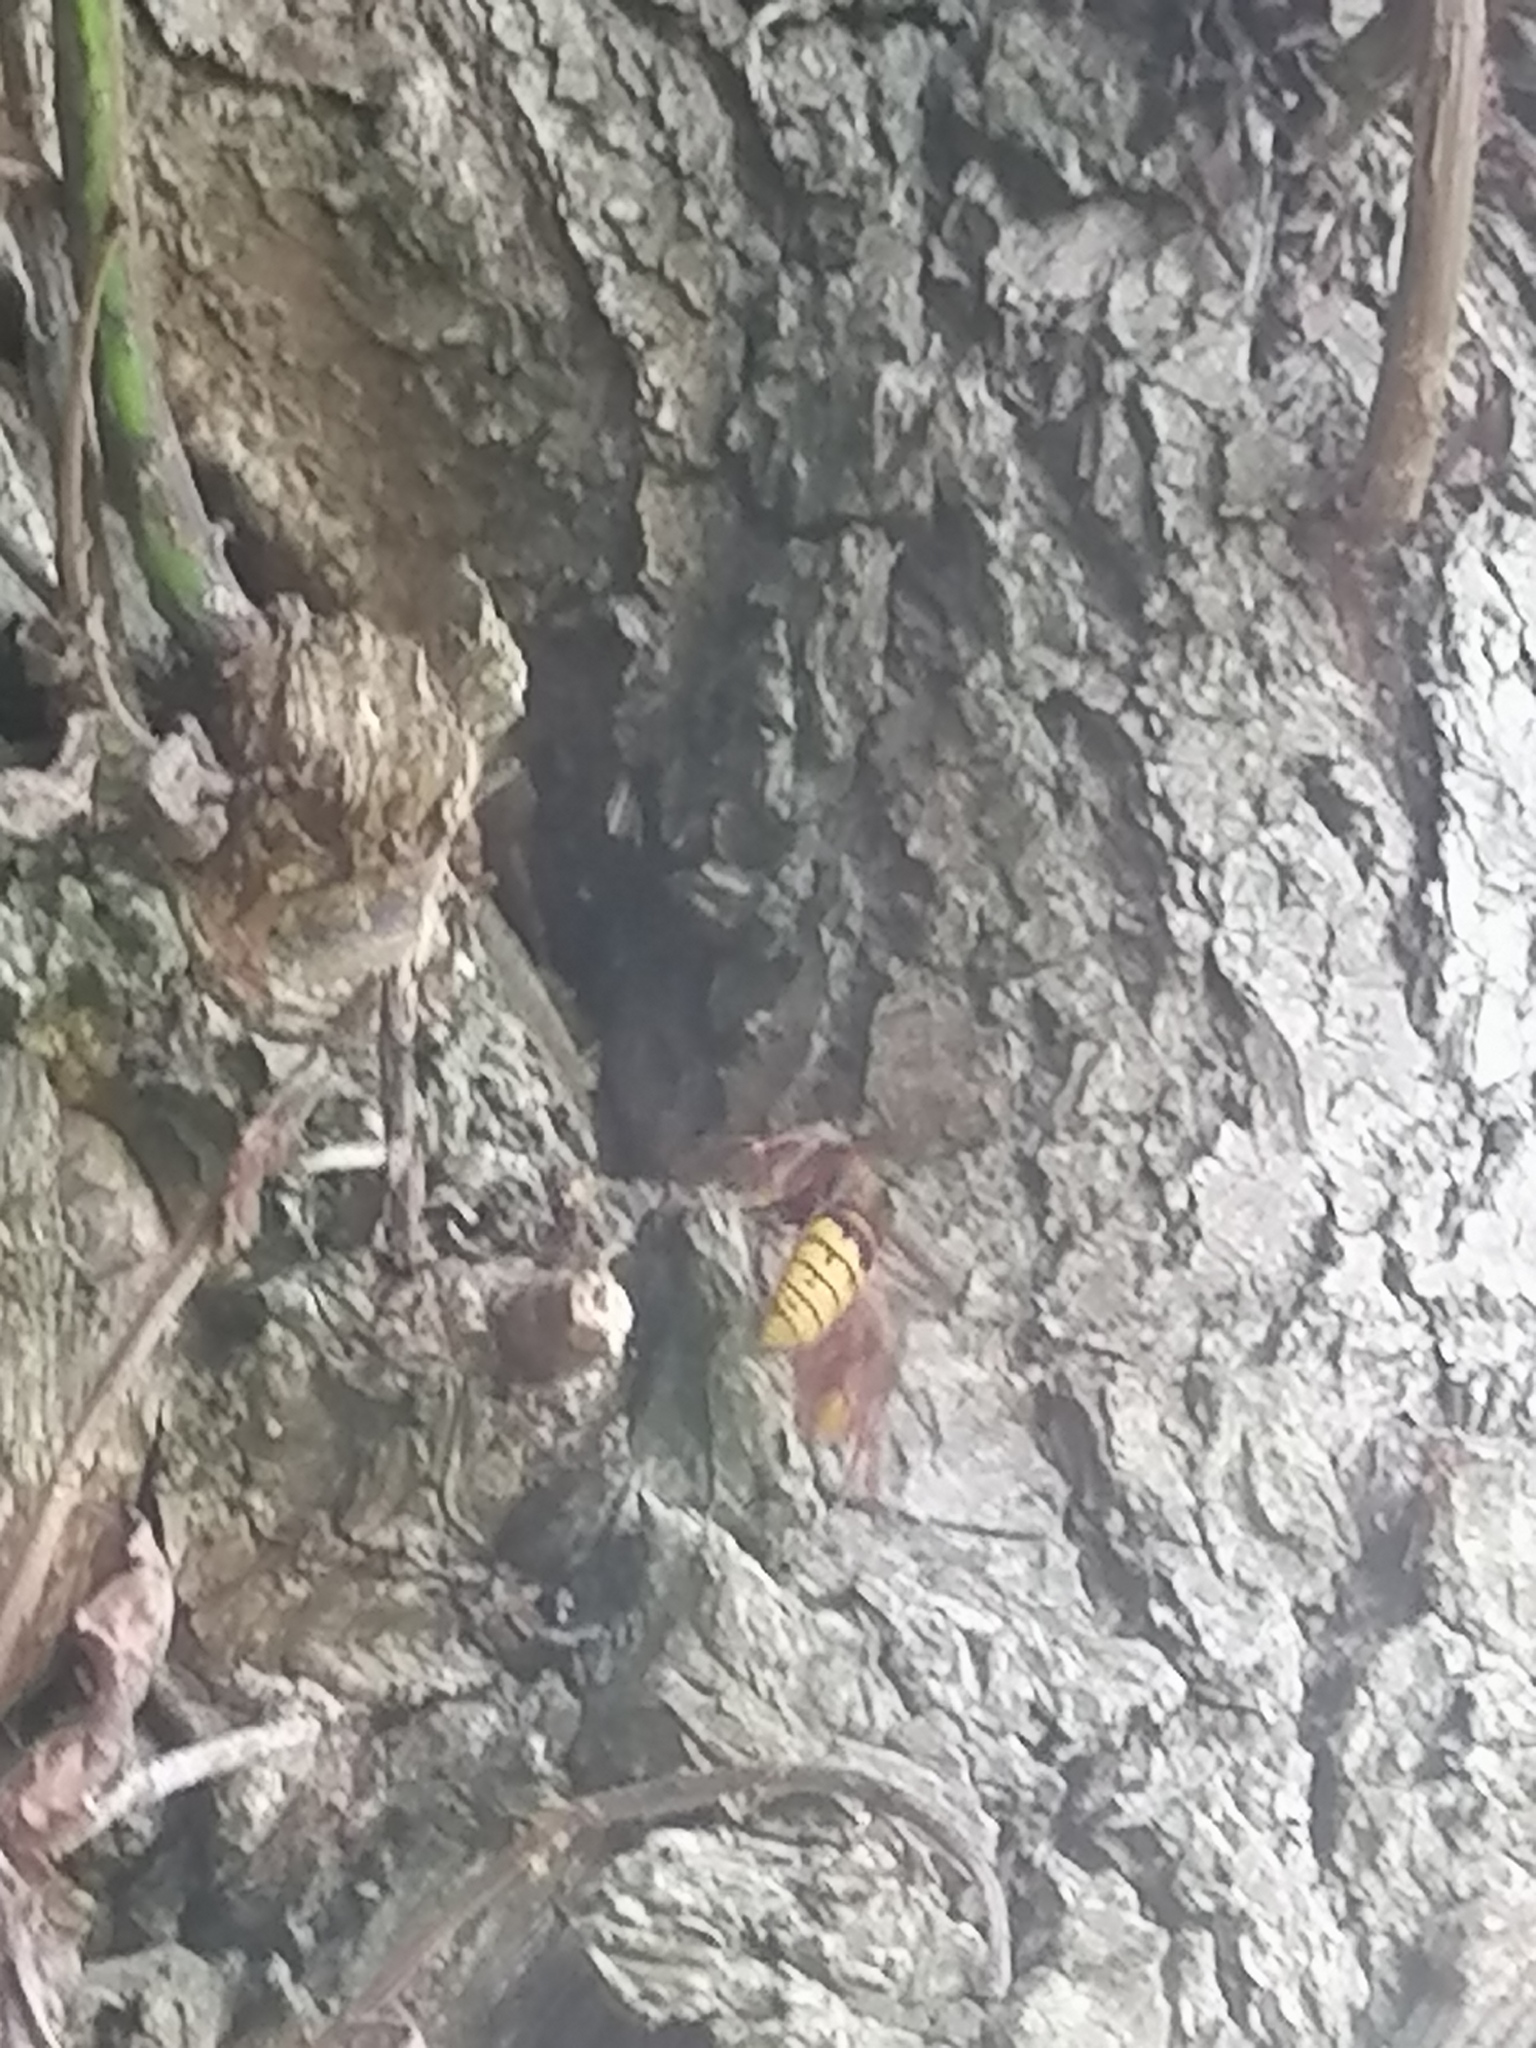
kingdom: Animalia
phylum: Arthropoda
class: Insecta
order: Hymenoptera
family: Vespidae
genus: Vespa
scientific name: Vespa crabro
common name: Hornet
